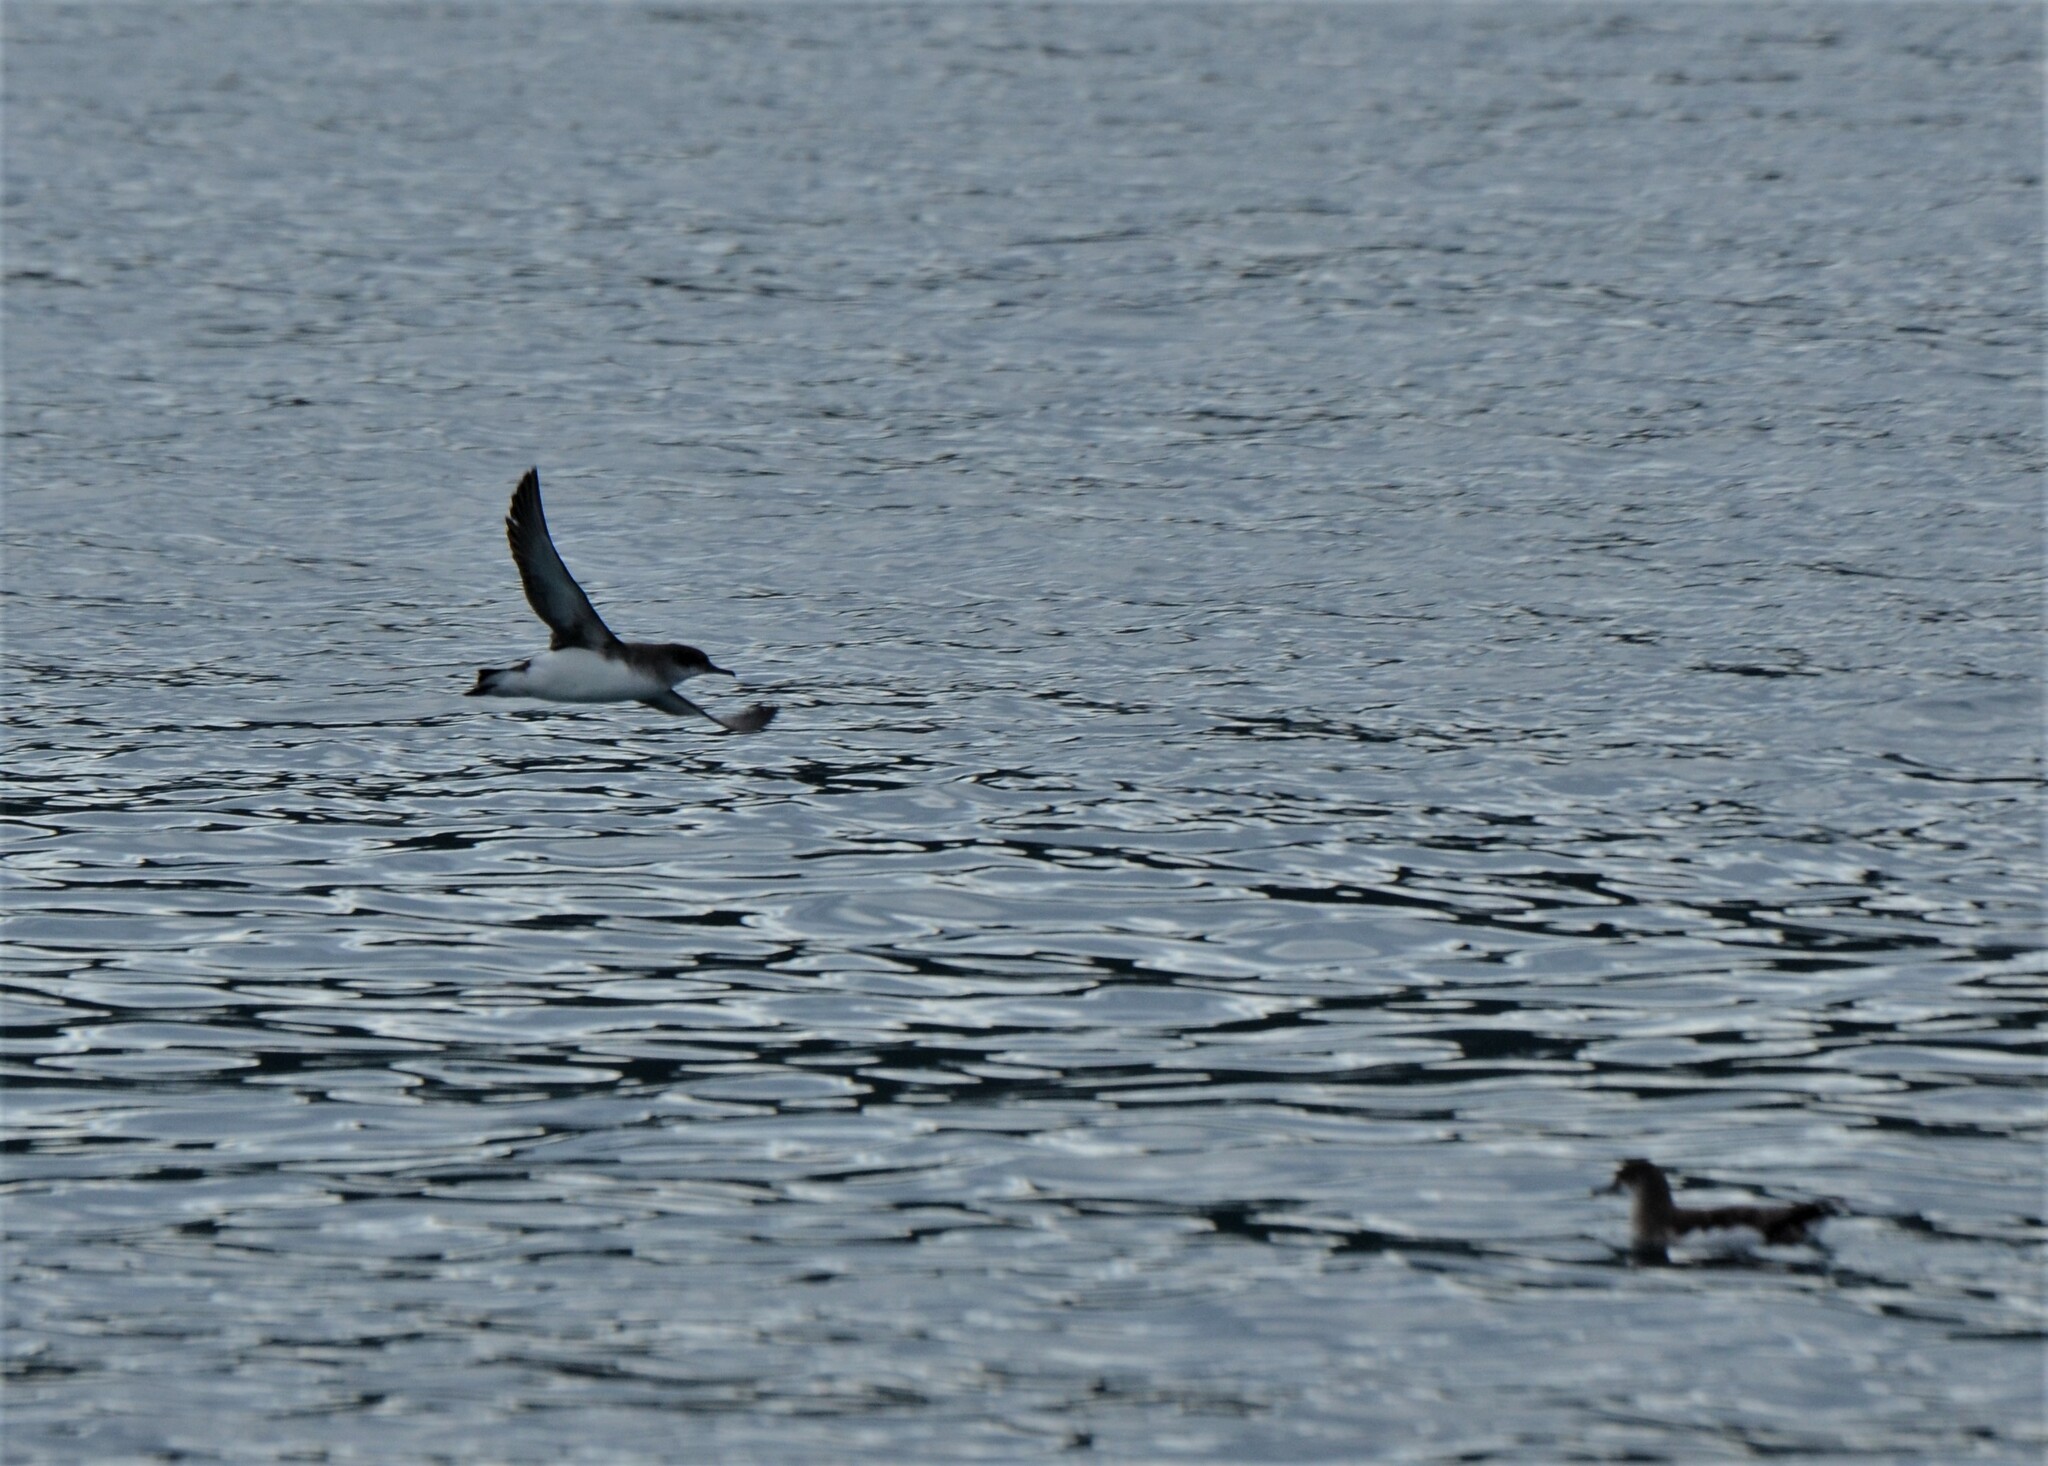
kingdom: Animalia
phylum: Chordata
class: Aves
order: Procellariiformes
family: Procellariidae
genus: Puffinus
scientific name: Puffinus gavia
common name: Fluttering shearwater
